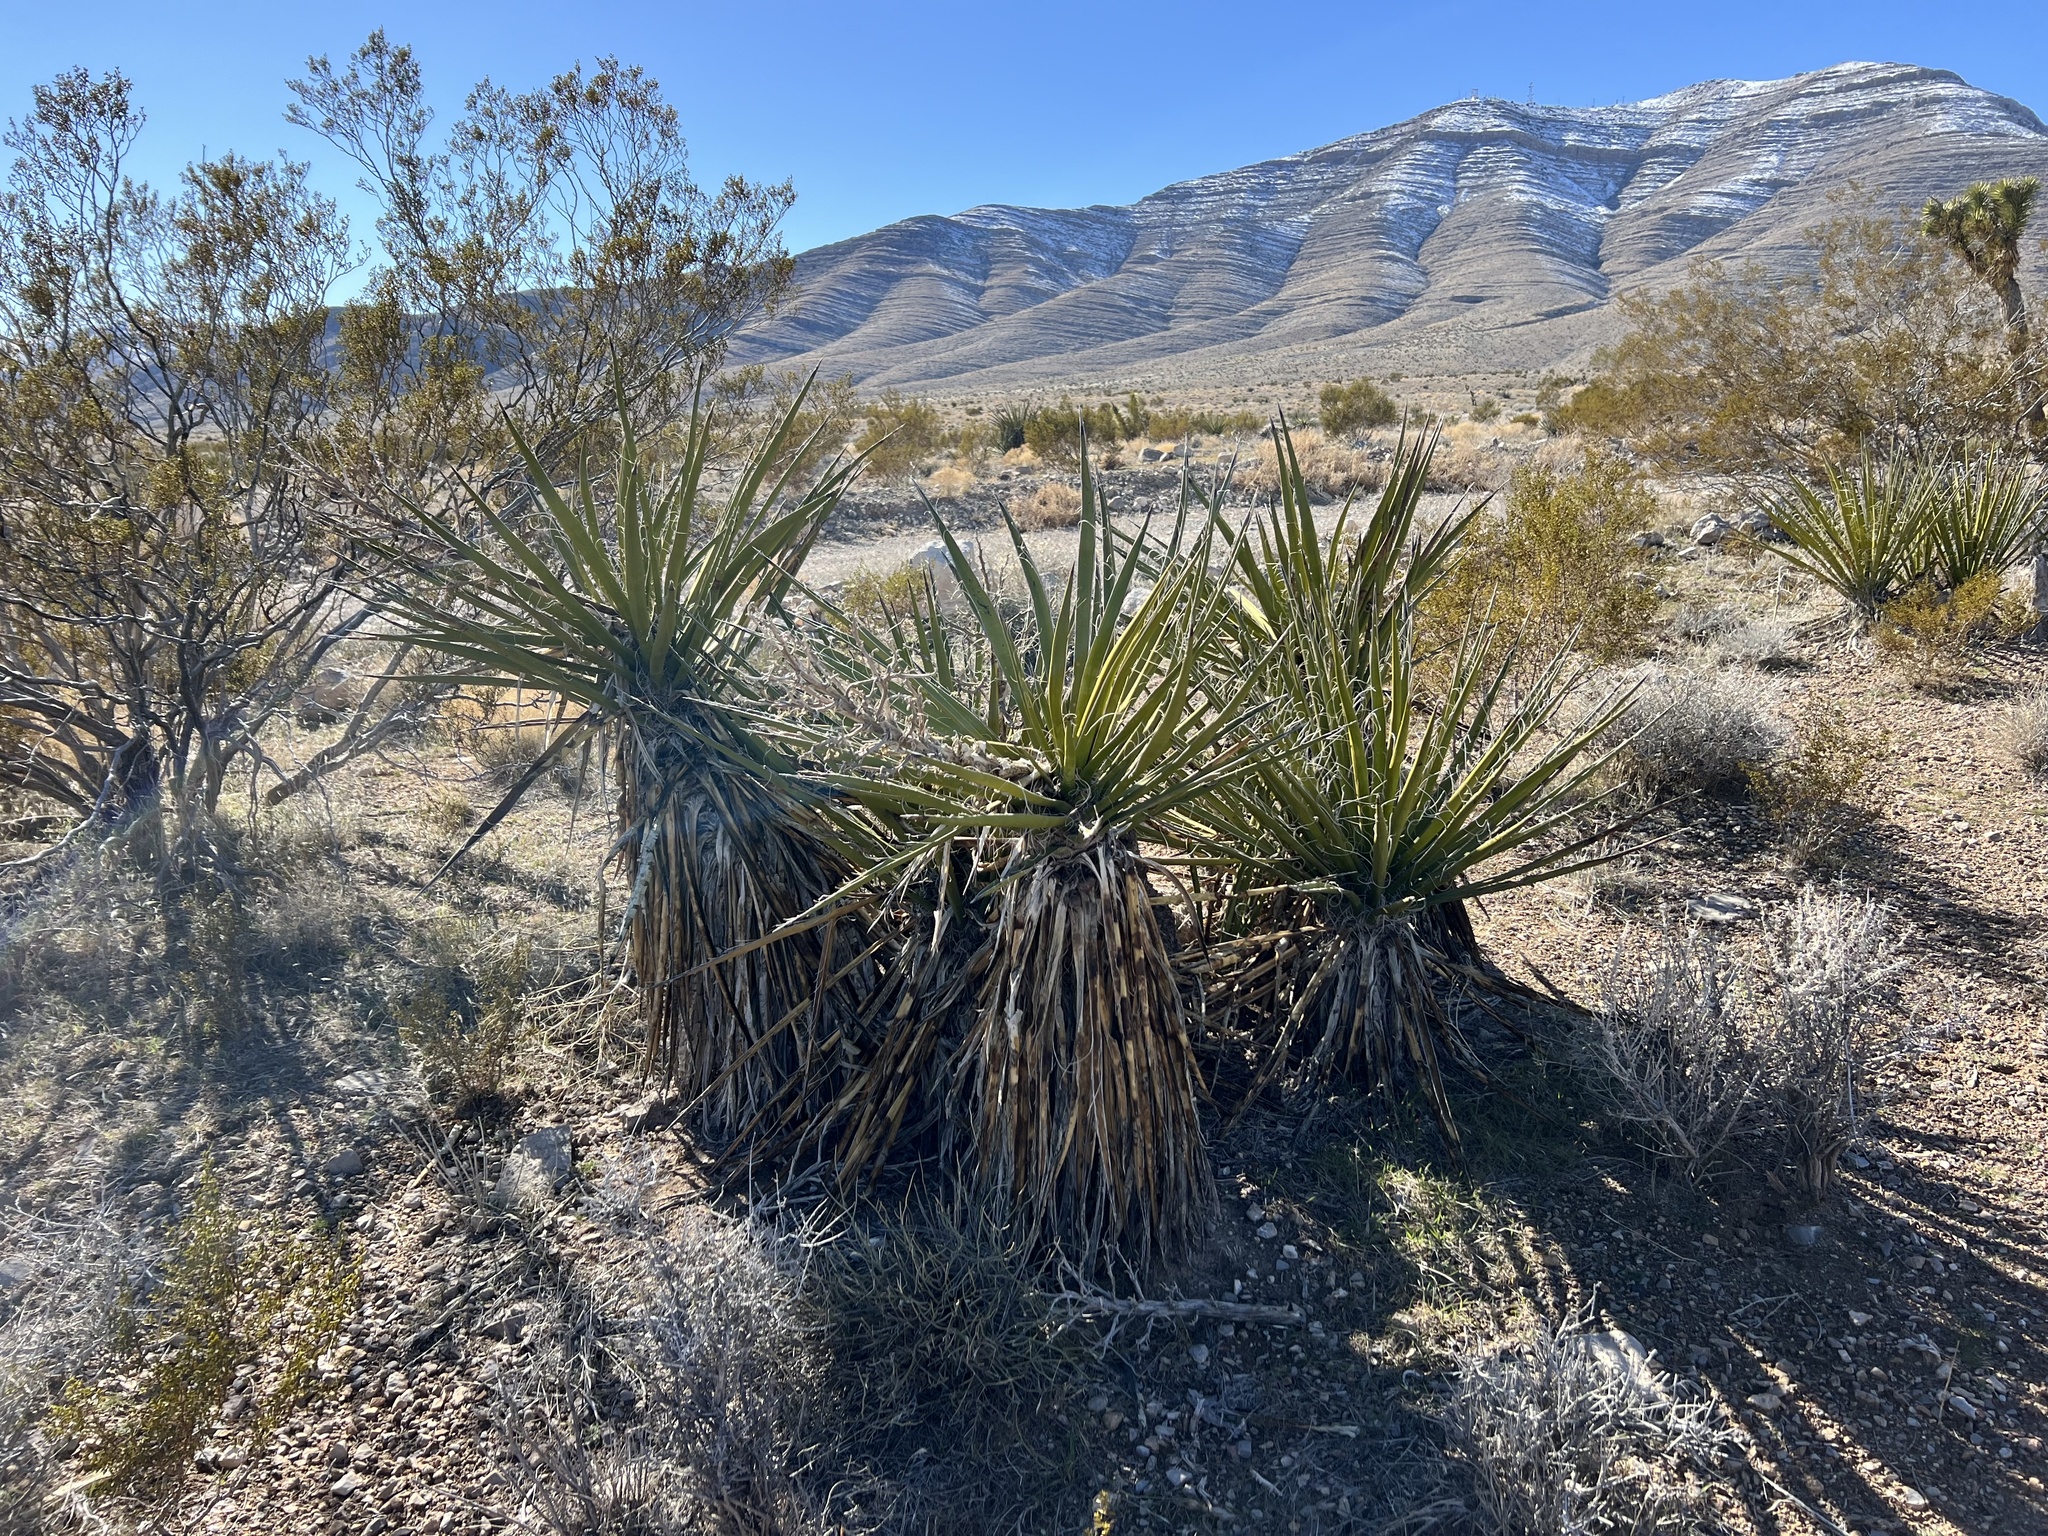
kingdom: Plantae
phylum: Tracheophyta
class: Liliopsida
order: Asparagales
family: Asparagaceae
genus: Yucca
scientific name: Yucca schidigera
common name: Mojave yucca
